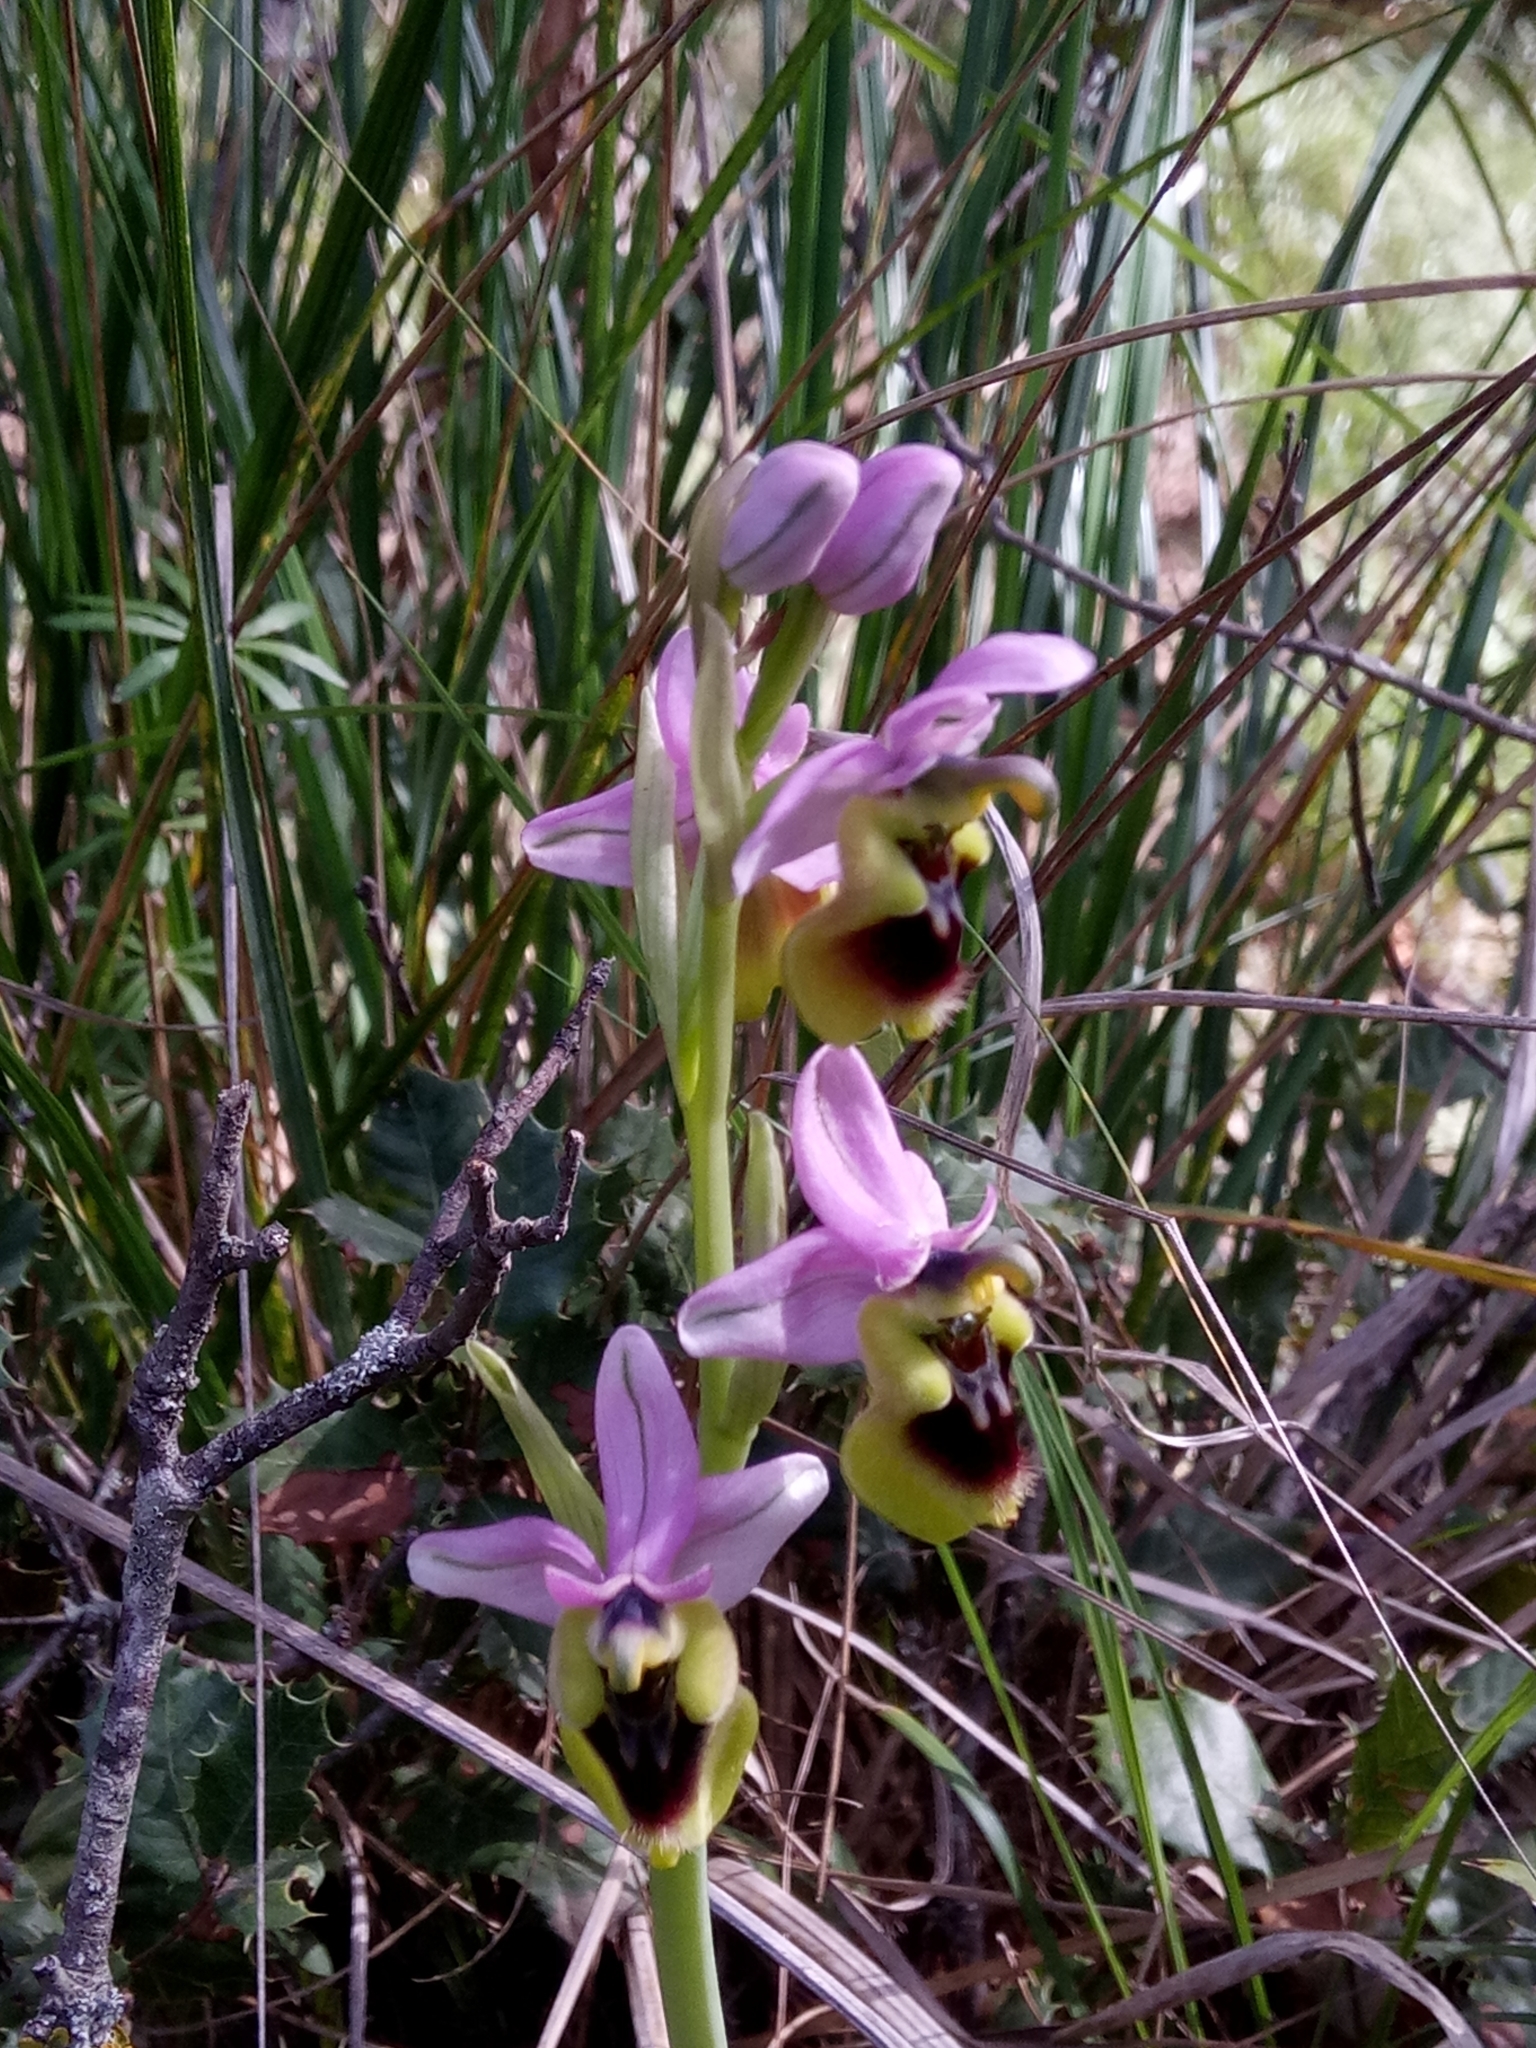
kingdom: Plantae
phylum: Tracheophyta
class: Liliopsida
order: Asparagales
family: Orchidaceae
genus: Ophrys
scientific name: Ophrys tenthredinifera
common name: Sawfly orchid
